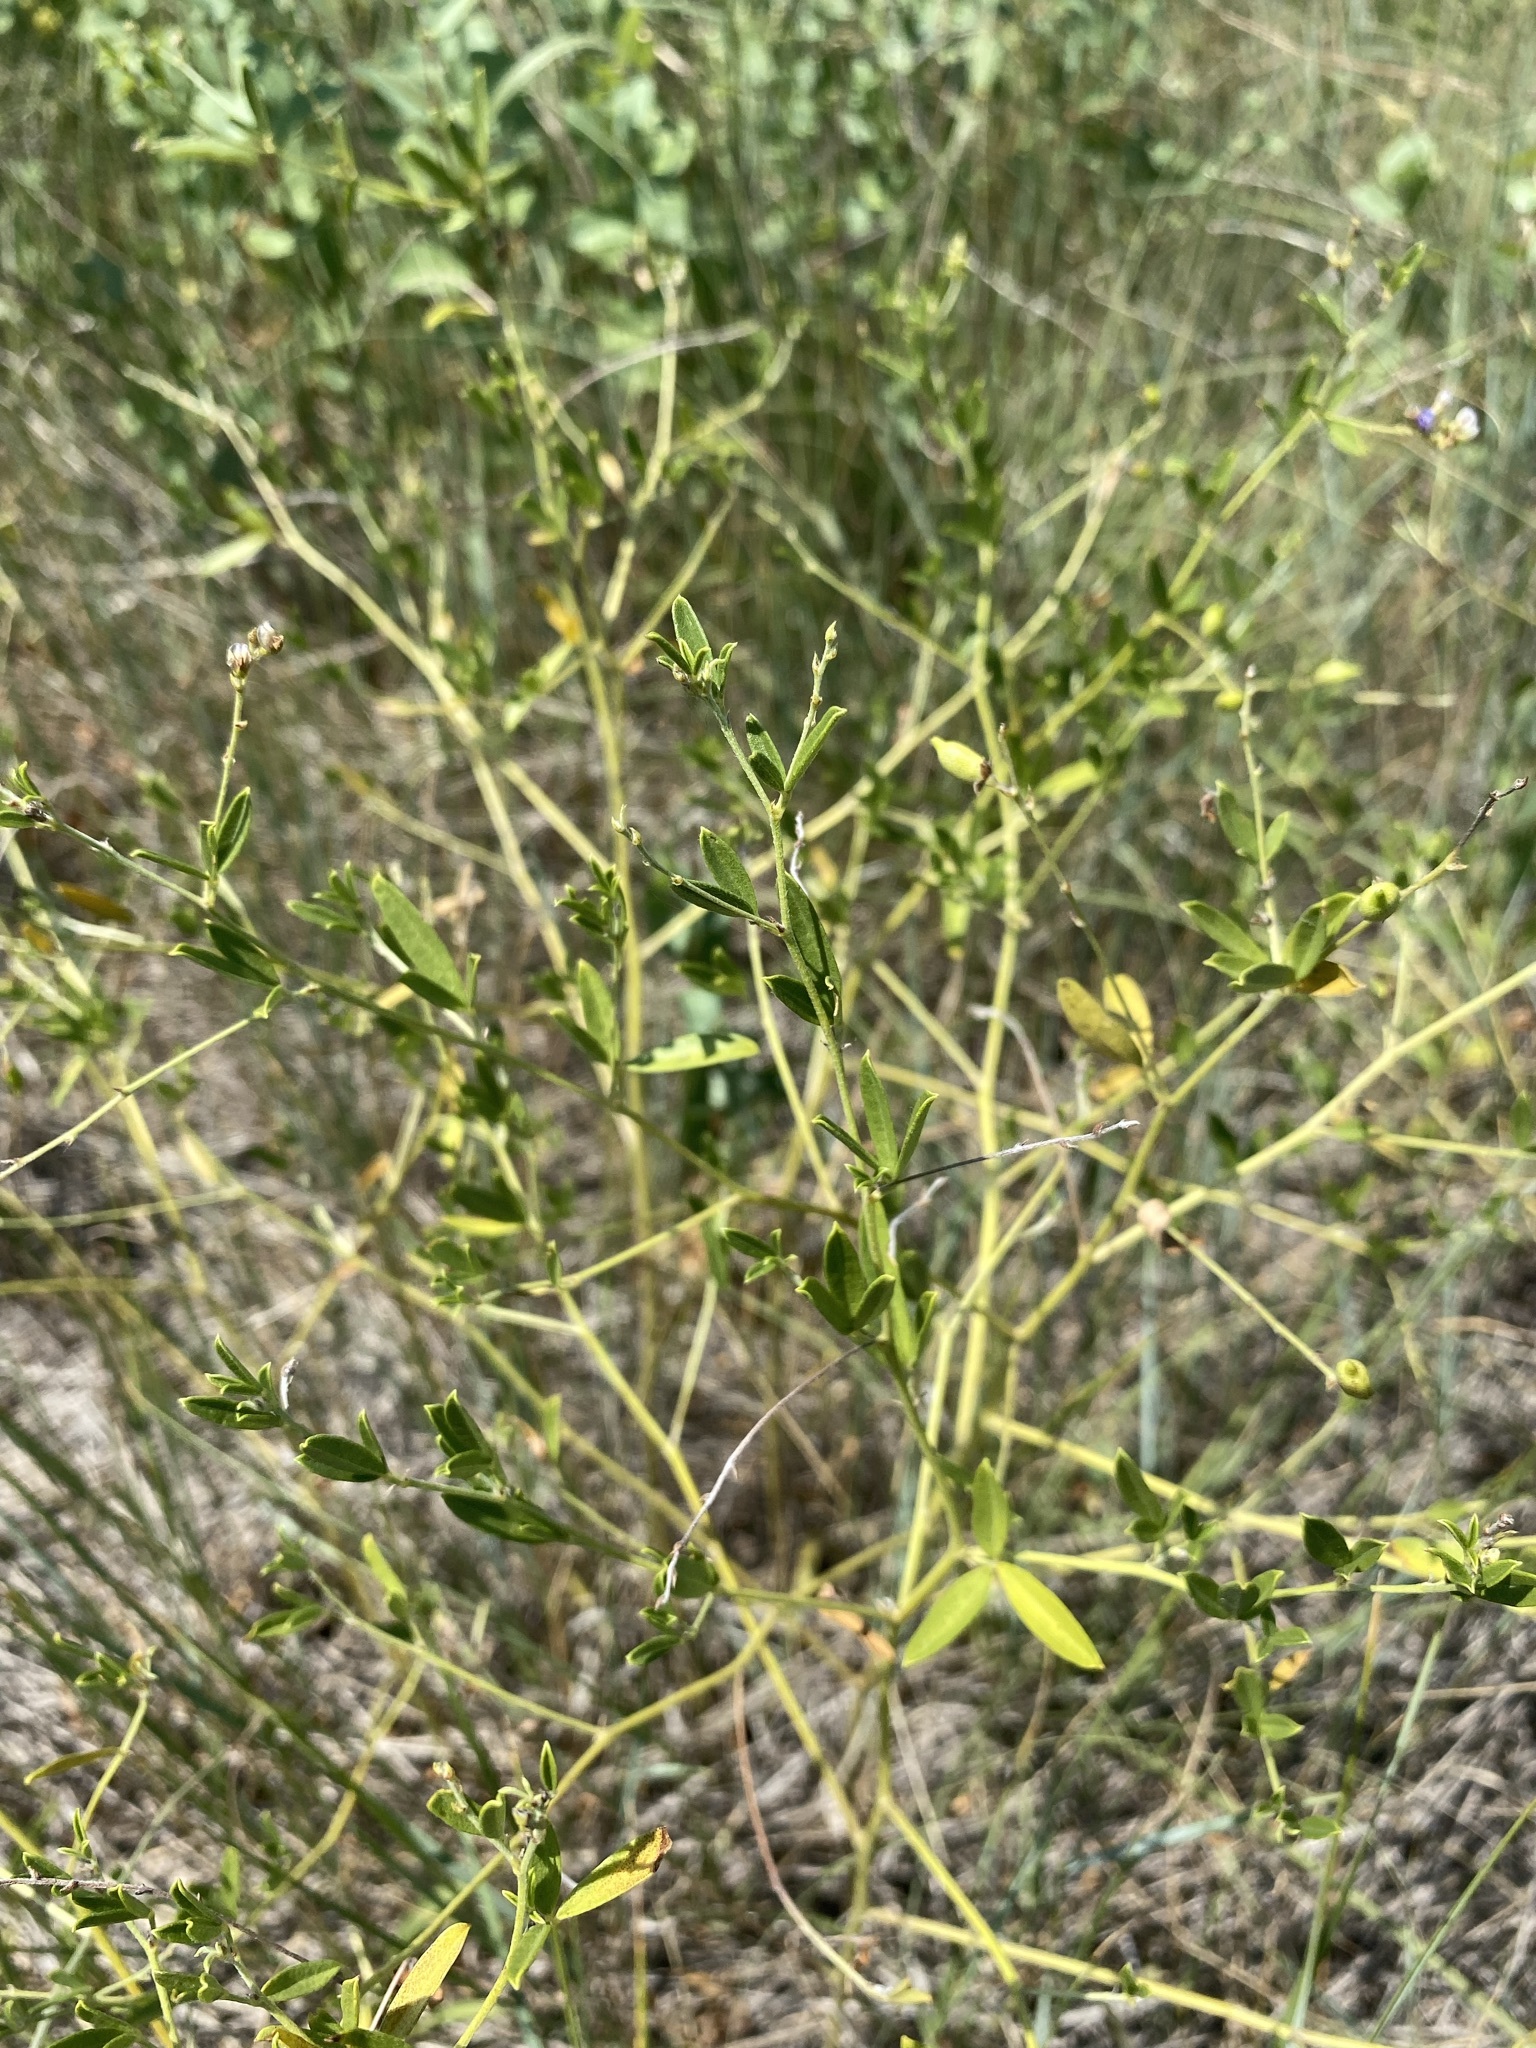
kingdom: Plantae
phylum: Tracheophyta
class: Magnoliopsida
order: Fabales
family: Fabaceae
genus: Pediomelum
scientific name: Pediomelum tenuiflorum
